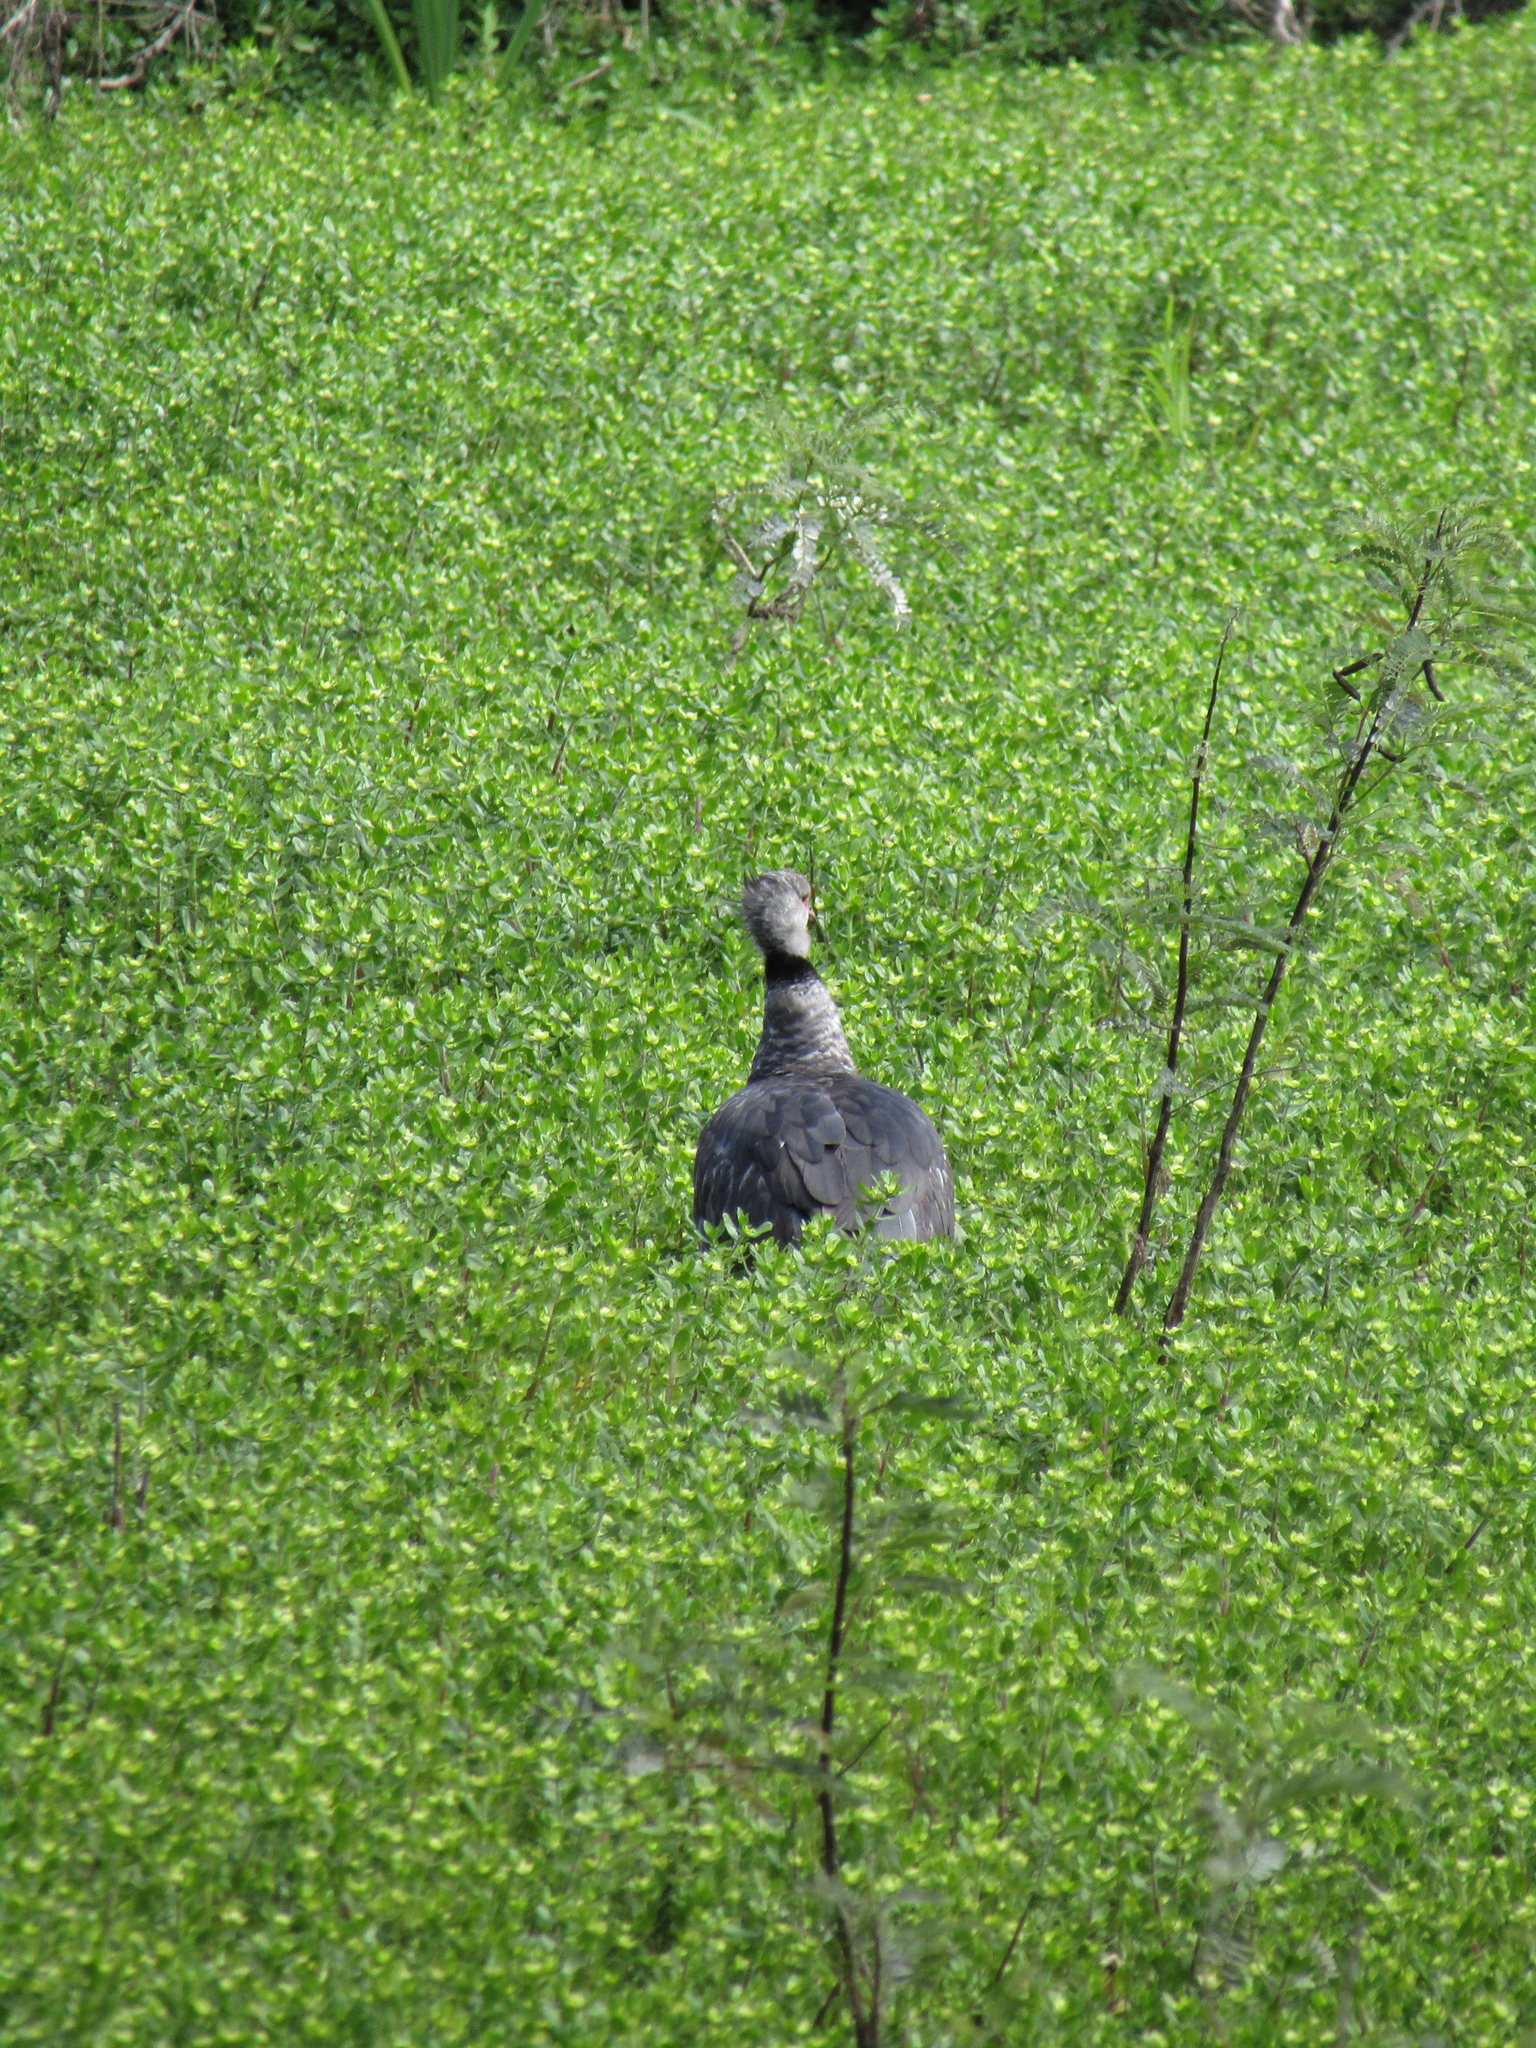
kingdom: Animalia
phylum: Chordata
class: Aves
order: Anseriformes
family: Anhimidae
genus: Chauna
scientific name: Chauna torquata
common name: Southern screamer
